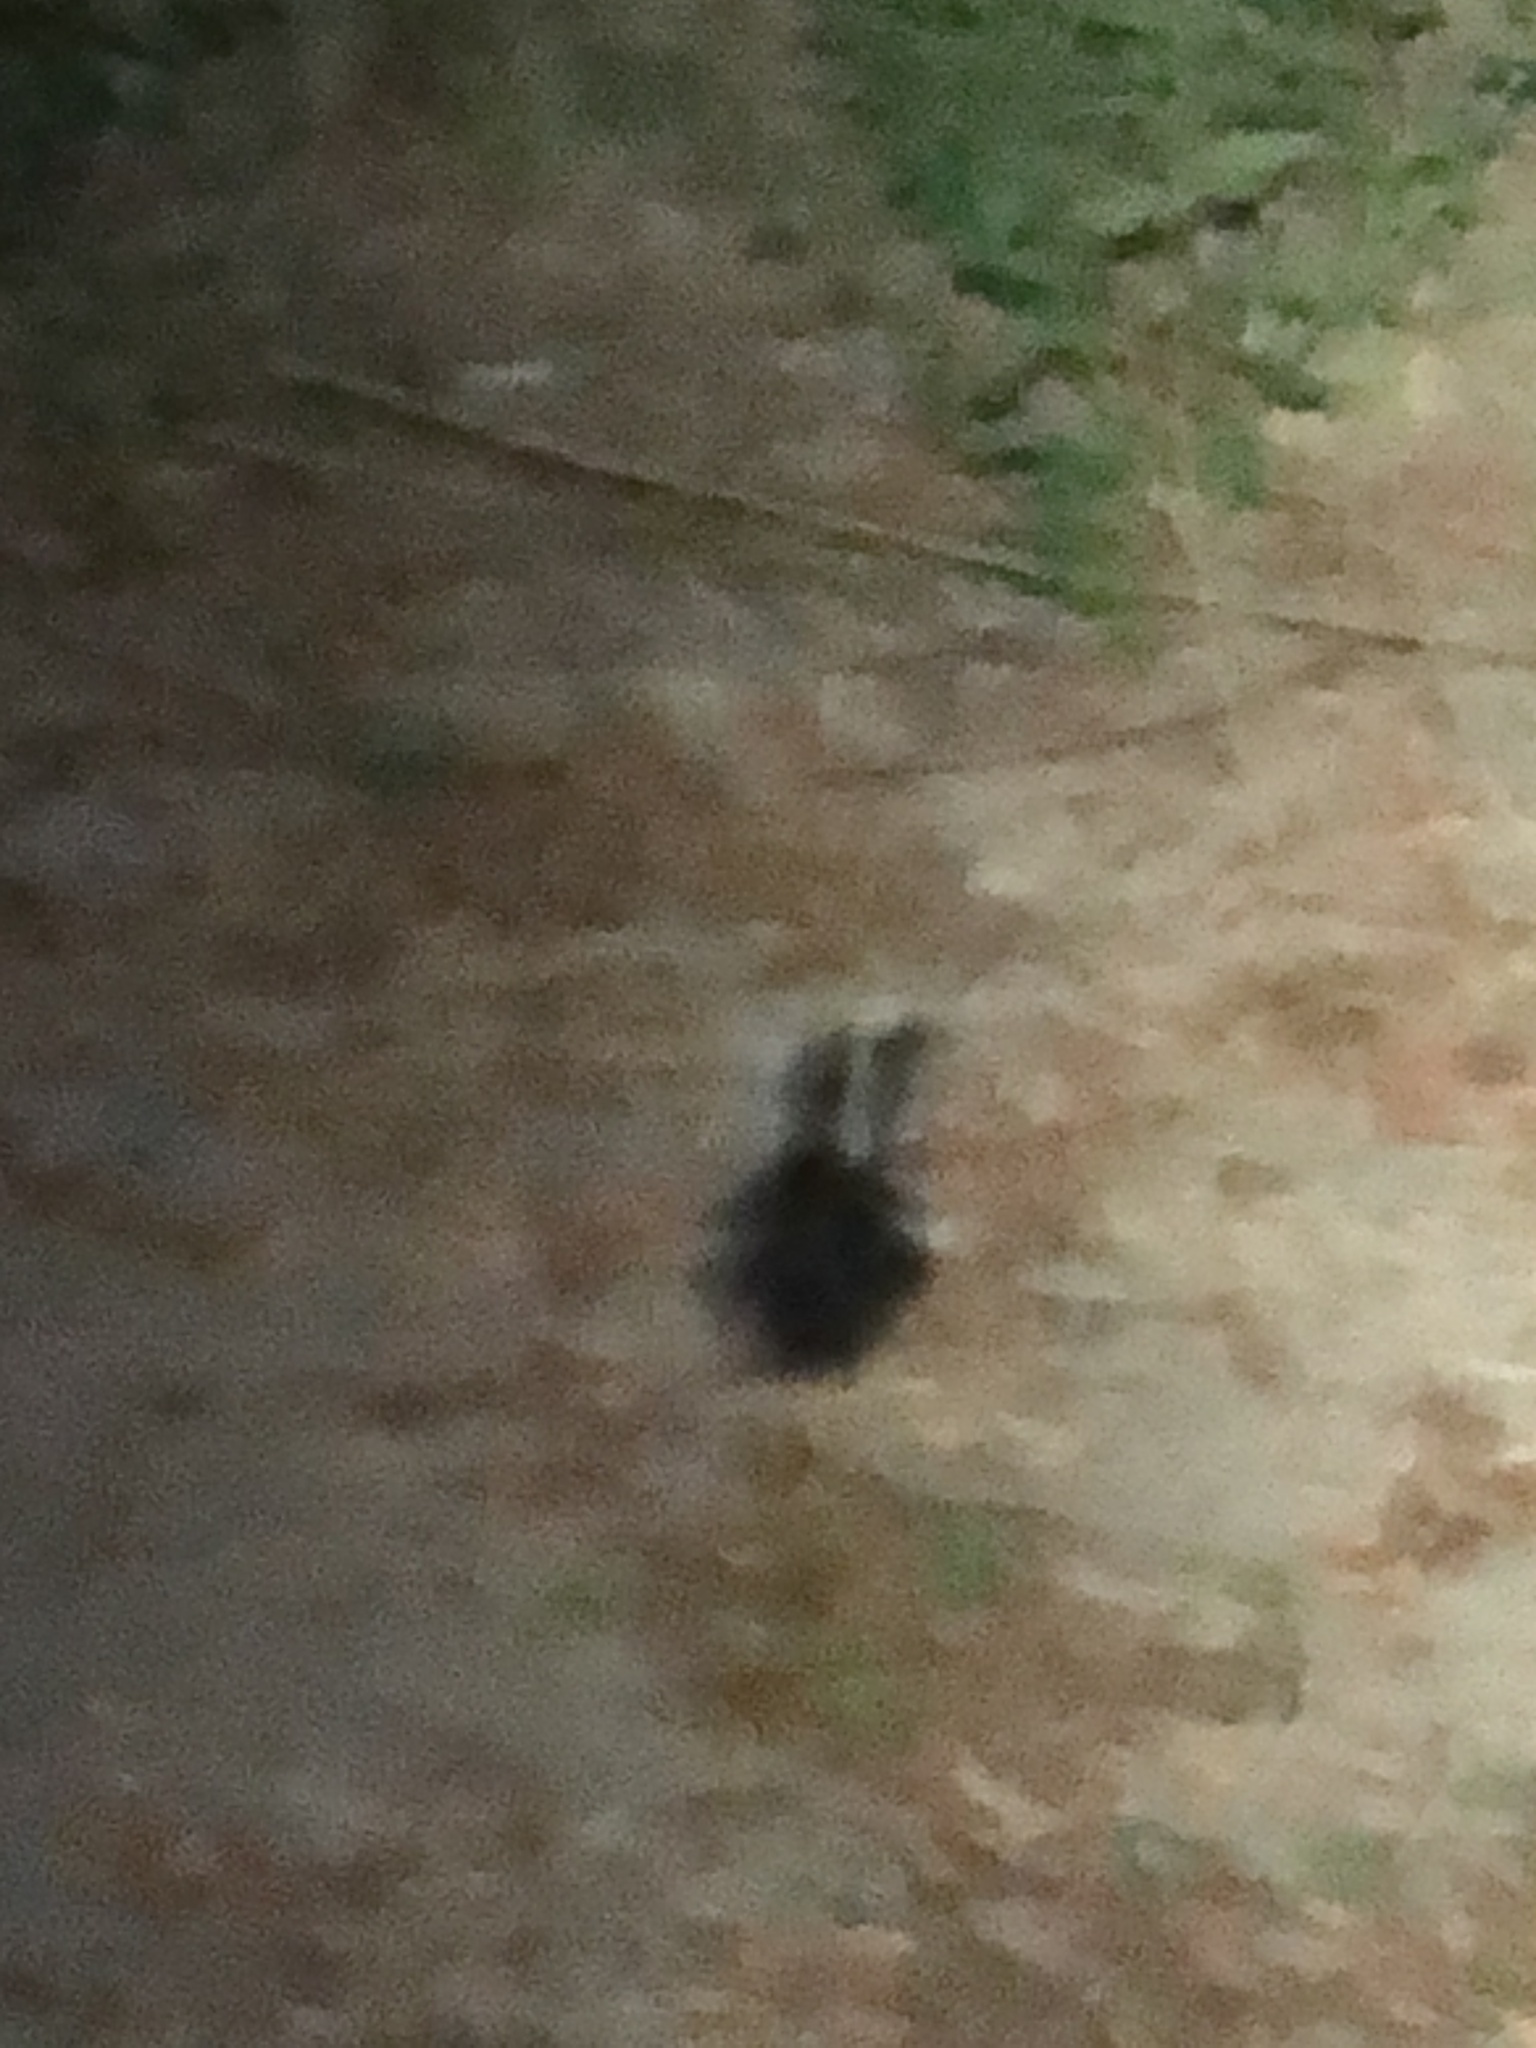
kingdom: Animalia
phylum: Chordata
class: Mammalia
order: Carnivora
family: Mephitidae
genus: Mephitis
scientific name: Mephitis mephitis
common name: Striped skunk
